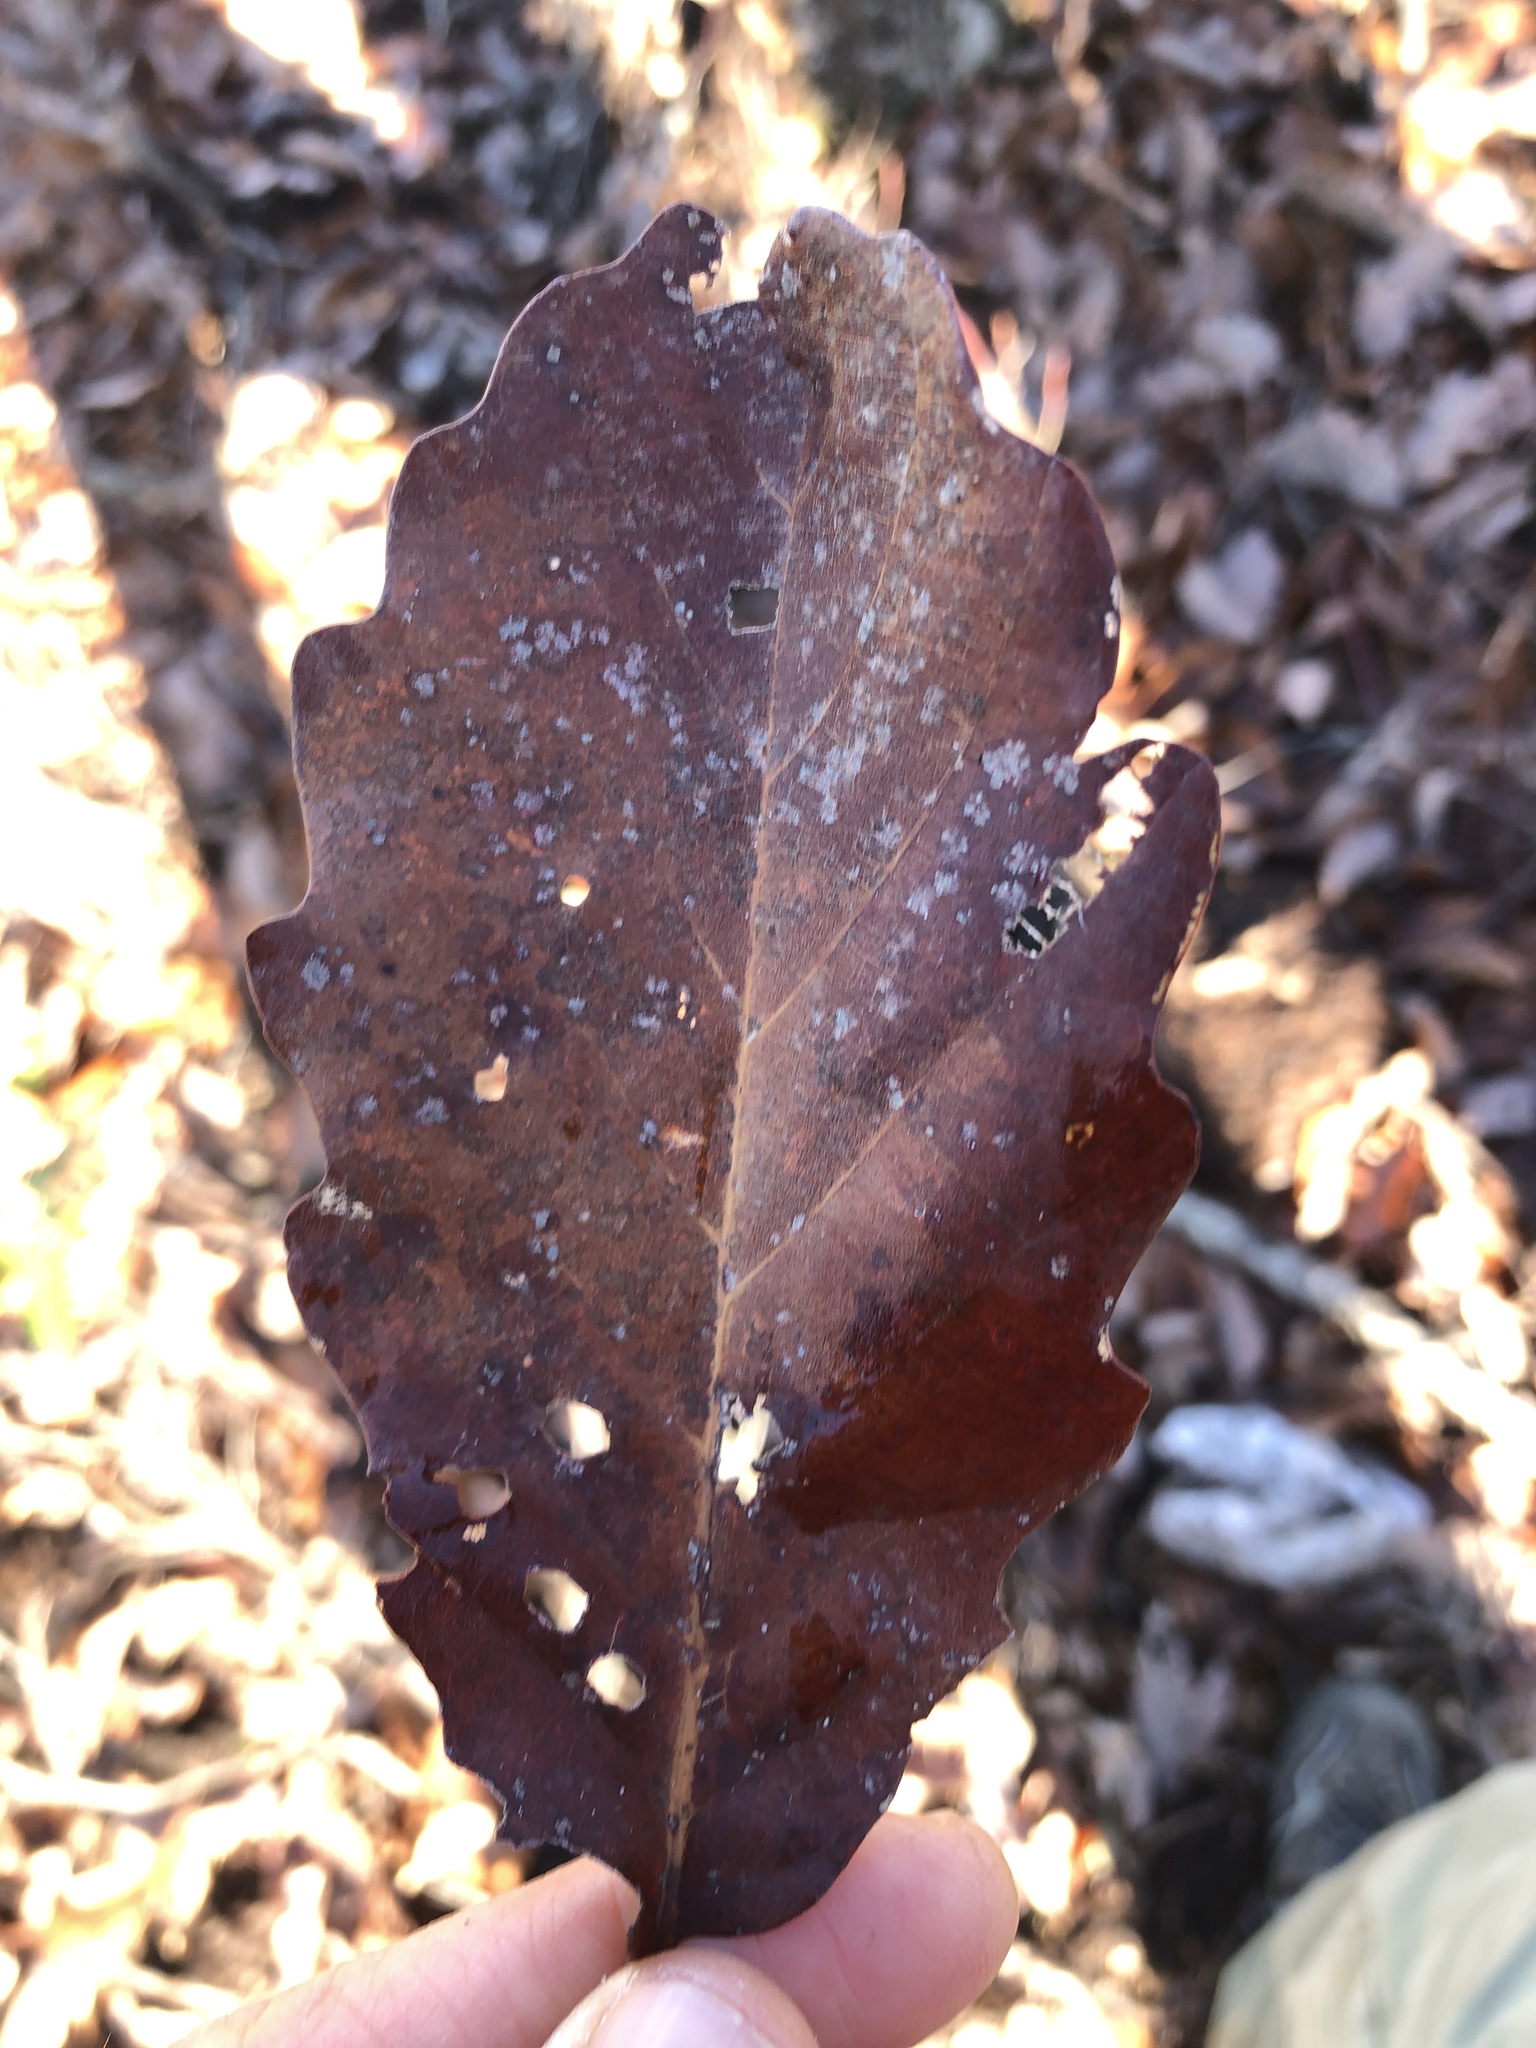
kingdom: Plantae
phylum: Tracheophyta
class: Magnoliopsida
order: Fagales
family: Fagaceae
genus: Quercus
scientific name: Quercus montana
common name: Chestnut oak
